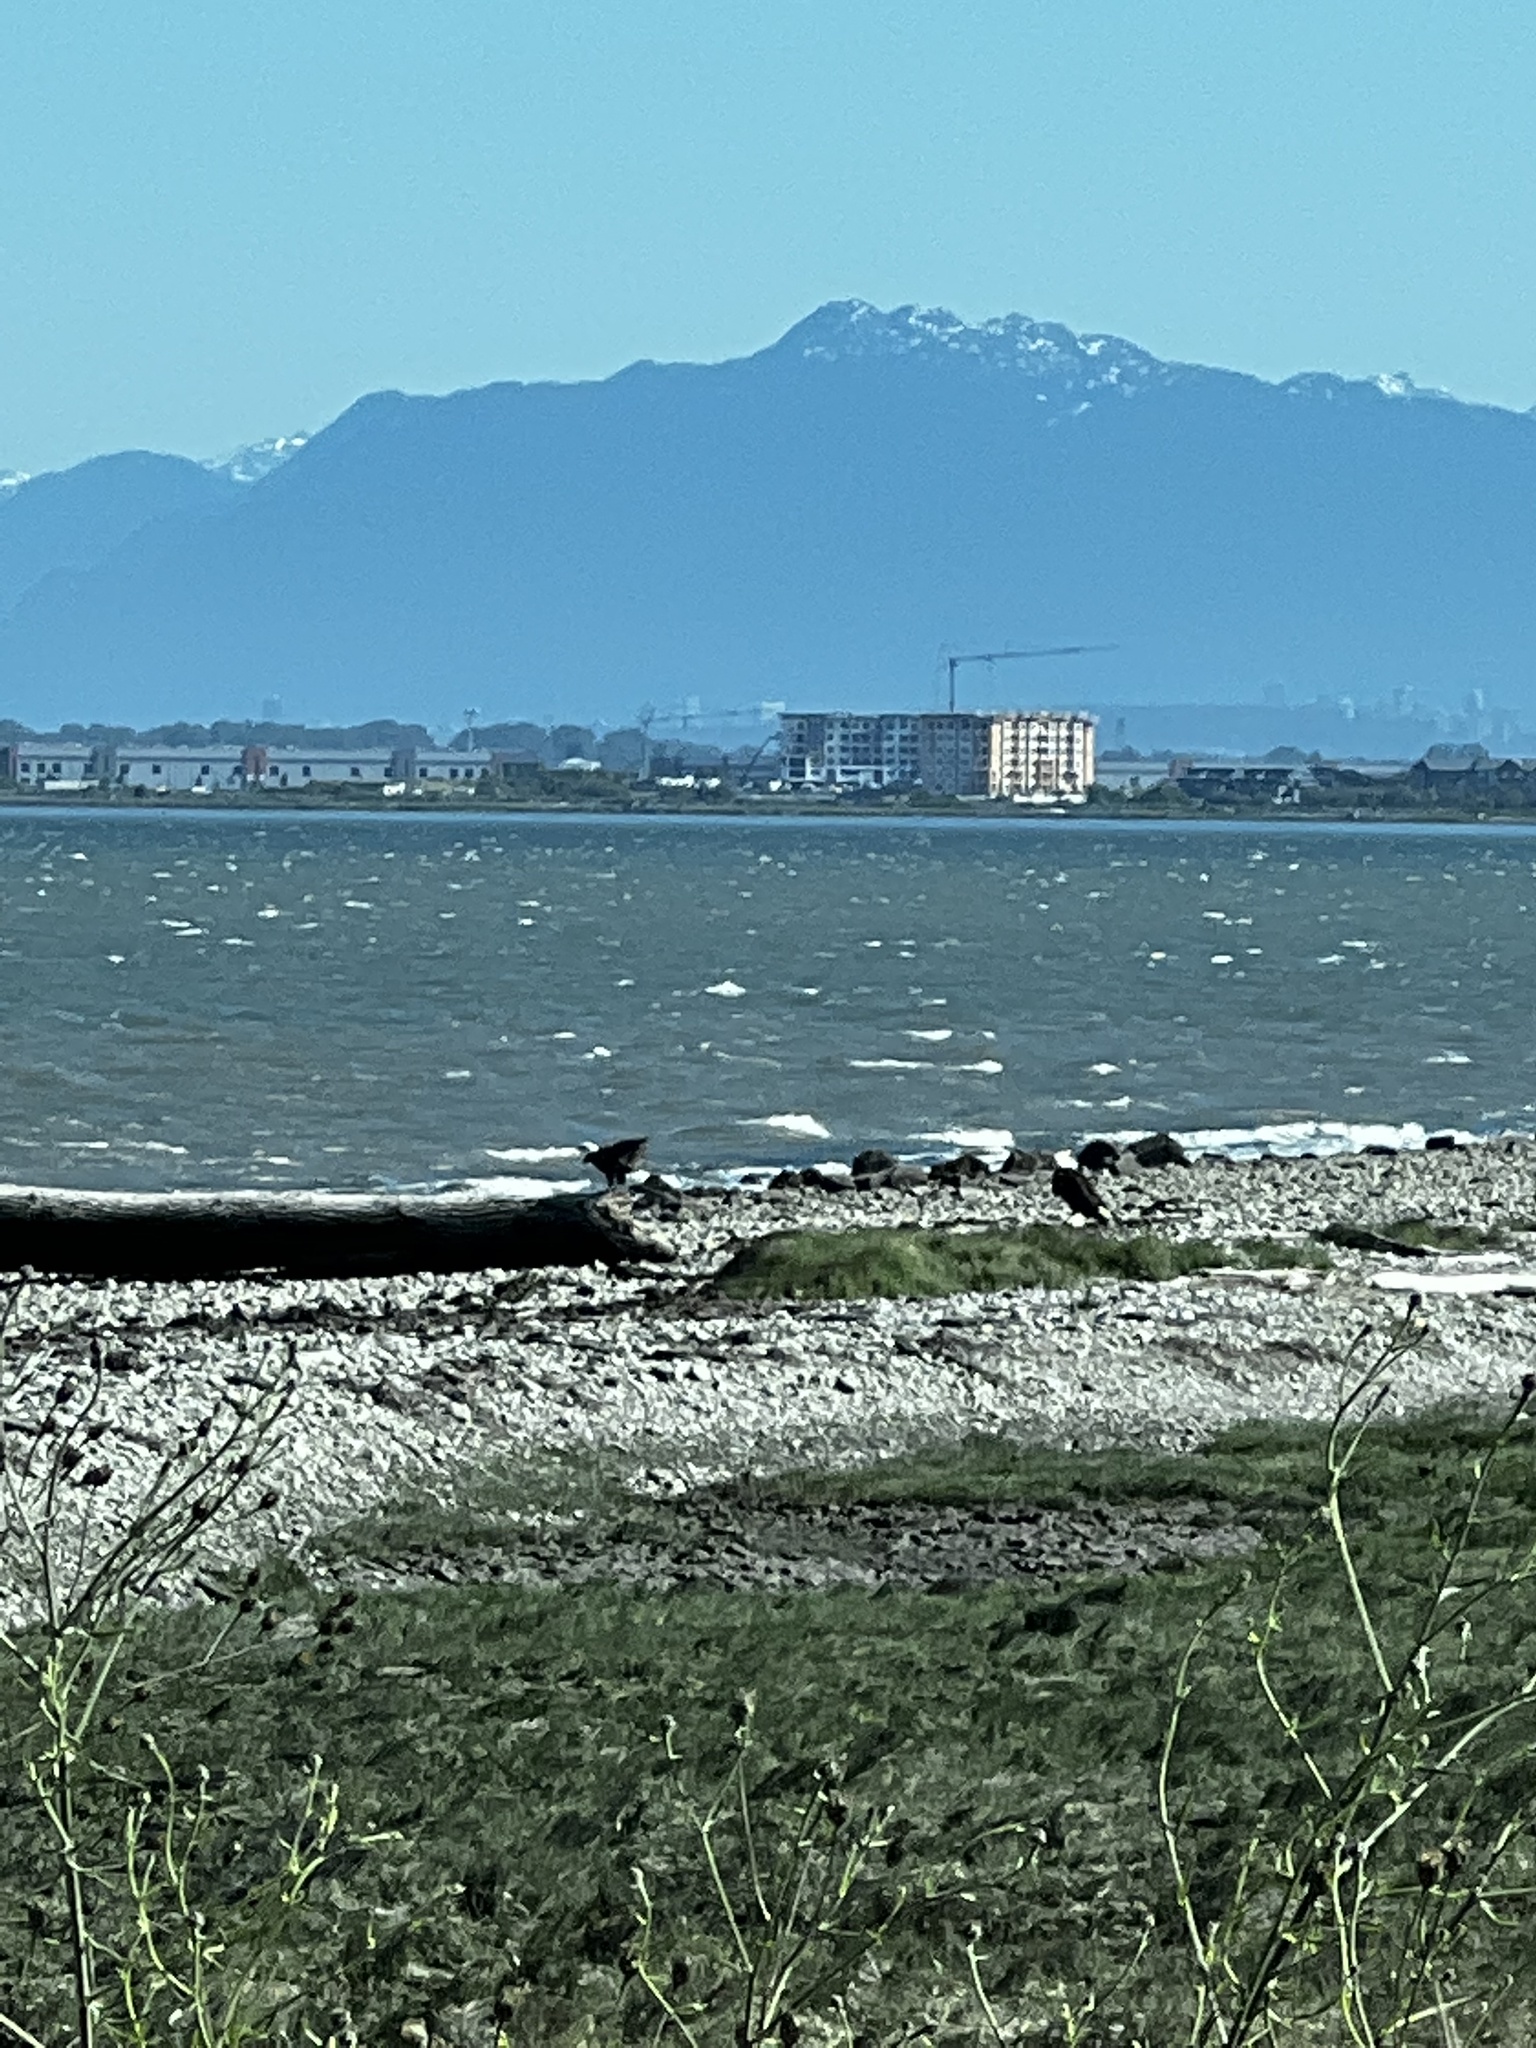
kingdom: Animalia
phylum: Chordata
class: Aves
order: Accipitriformes
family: Accipitridae
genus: Haliaeetus
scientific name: Haliaeetus leucocephalus
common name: Bald eagle
